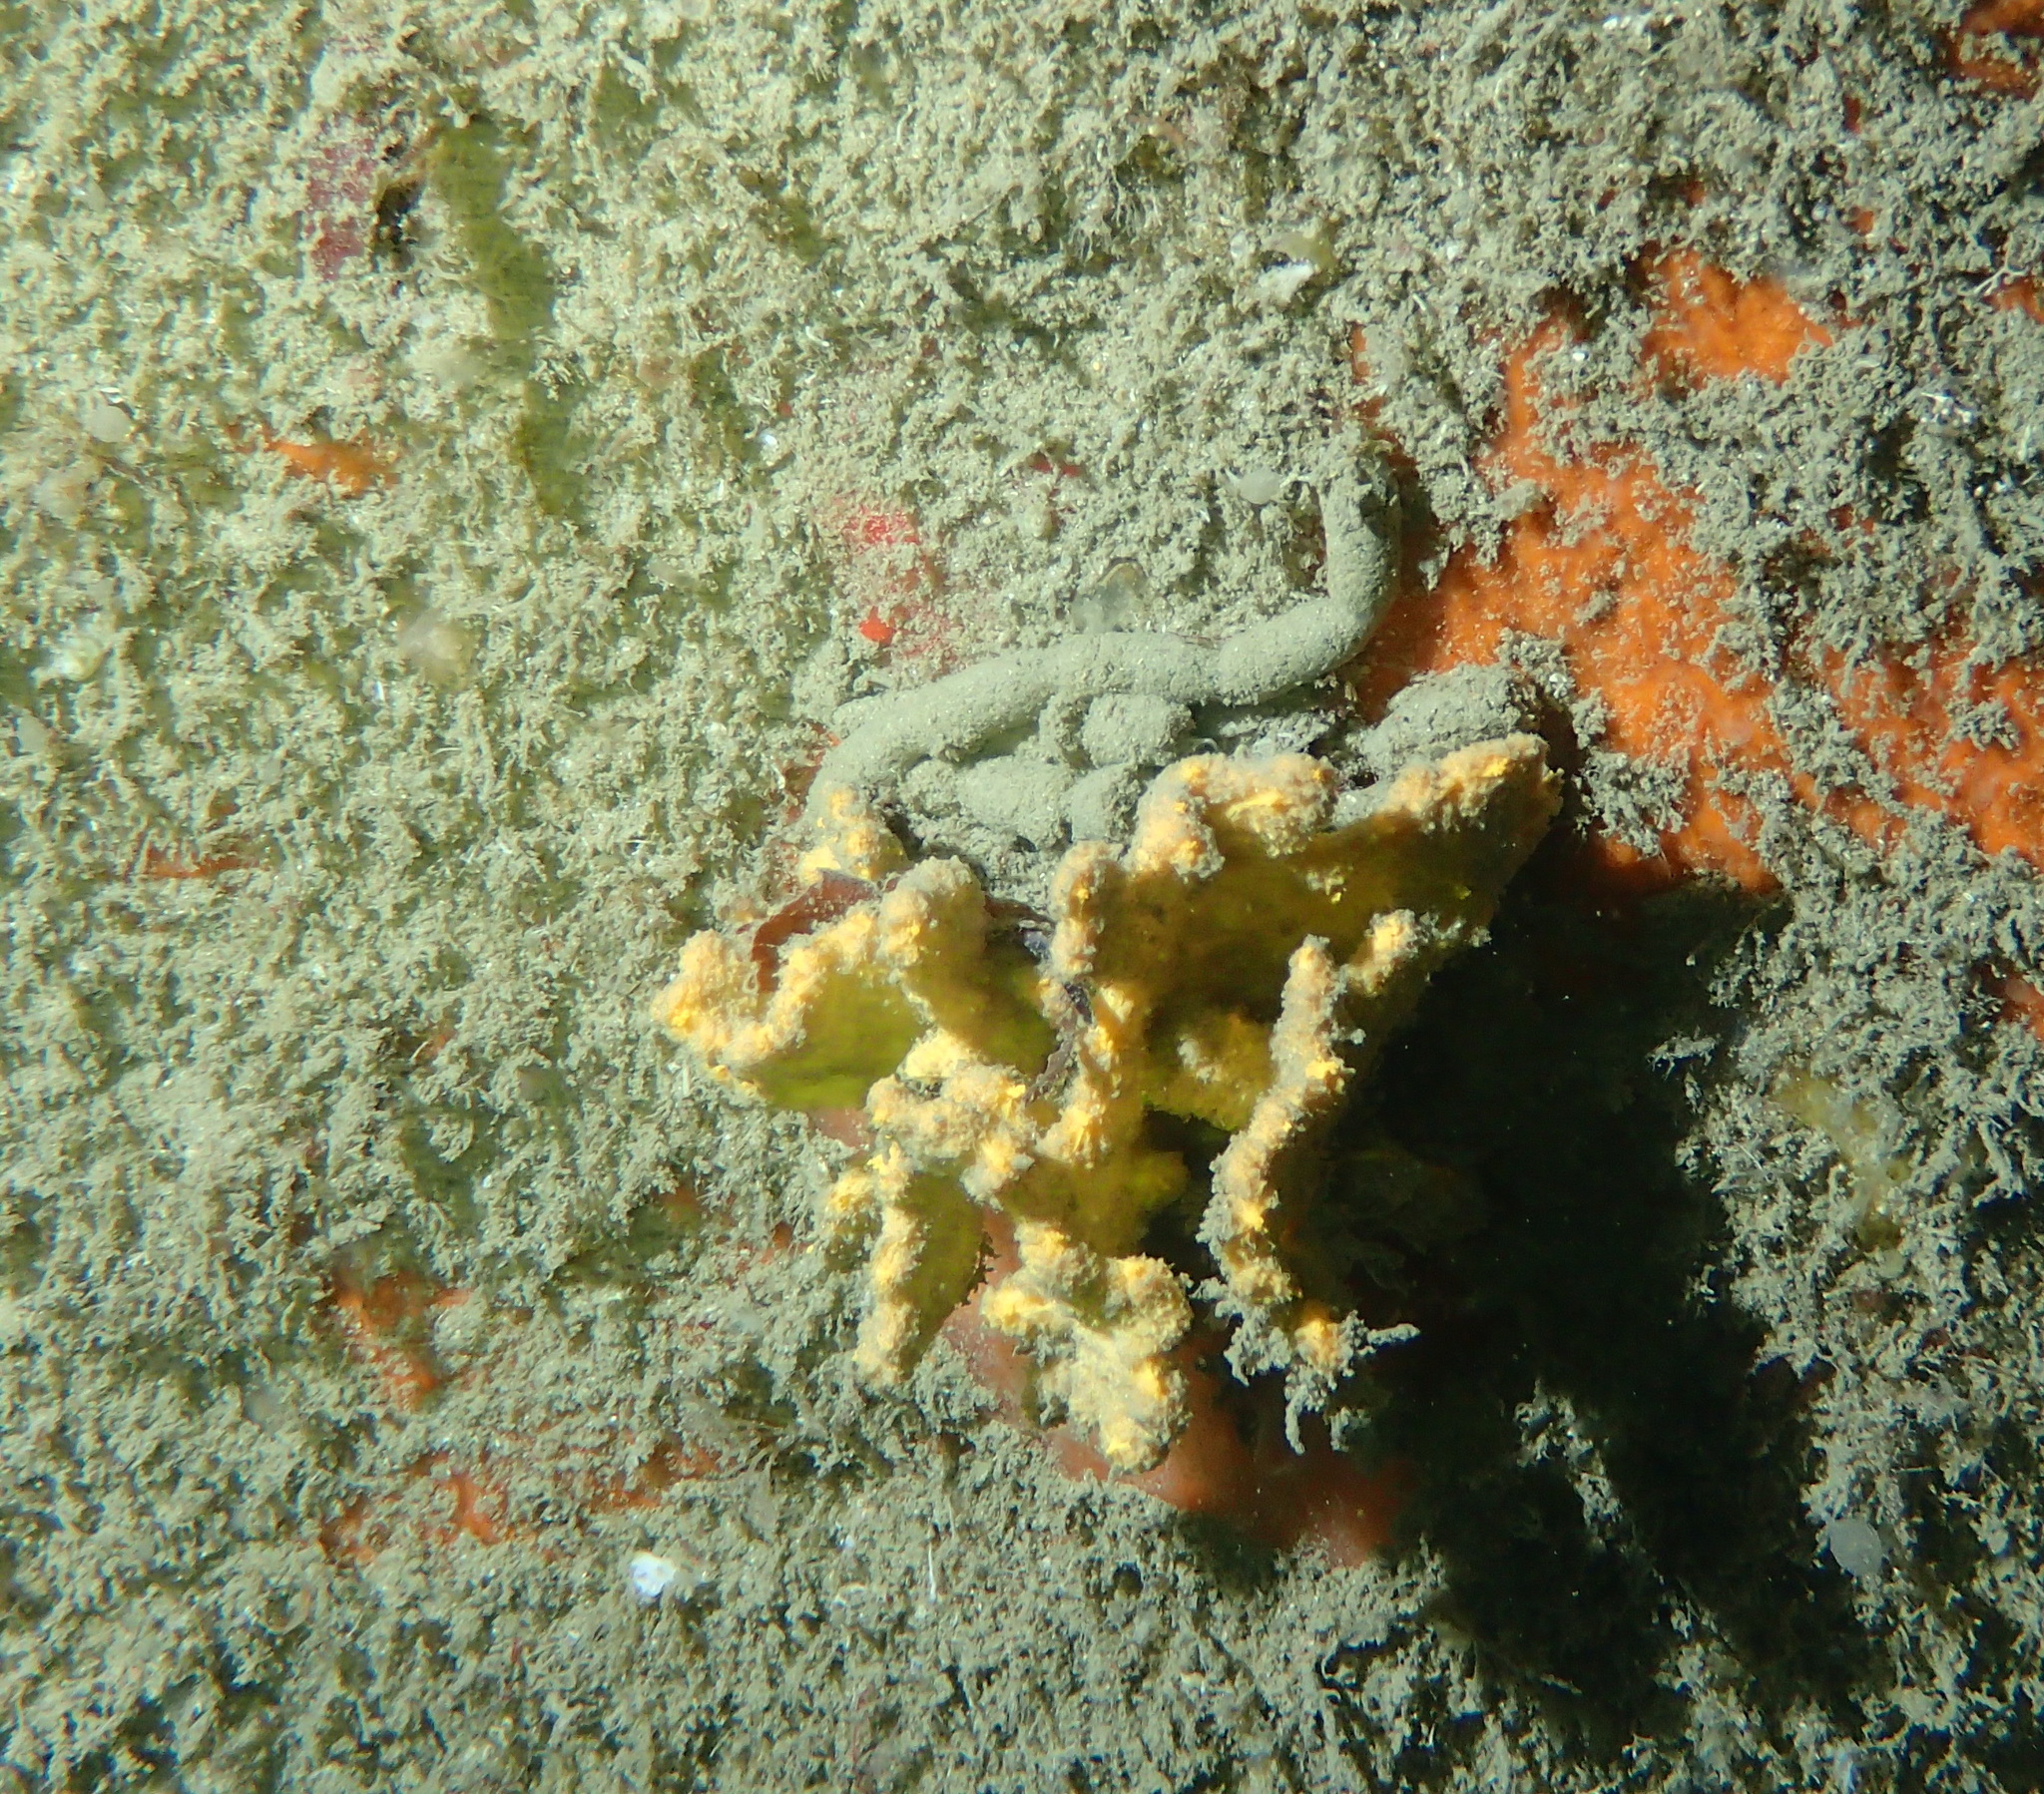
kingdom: Animalia
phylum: Porifera
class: Demospongiae
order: Axinellida
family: Axinellidae
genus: Axinella
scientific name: Axinella damicornis
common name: Crumpled duster sponge
